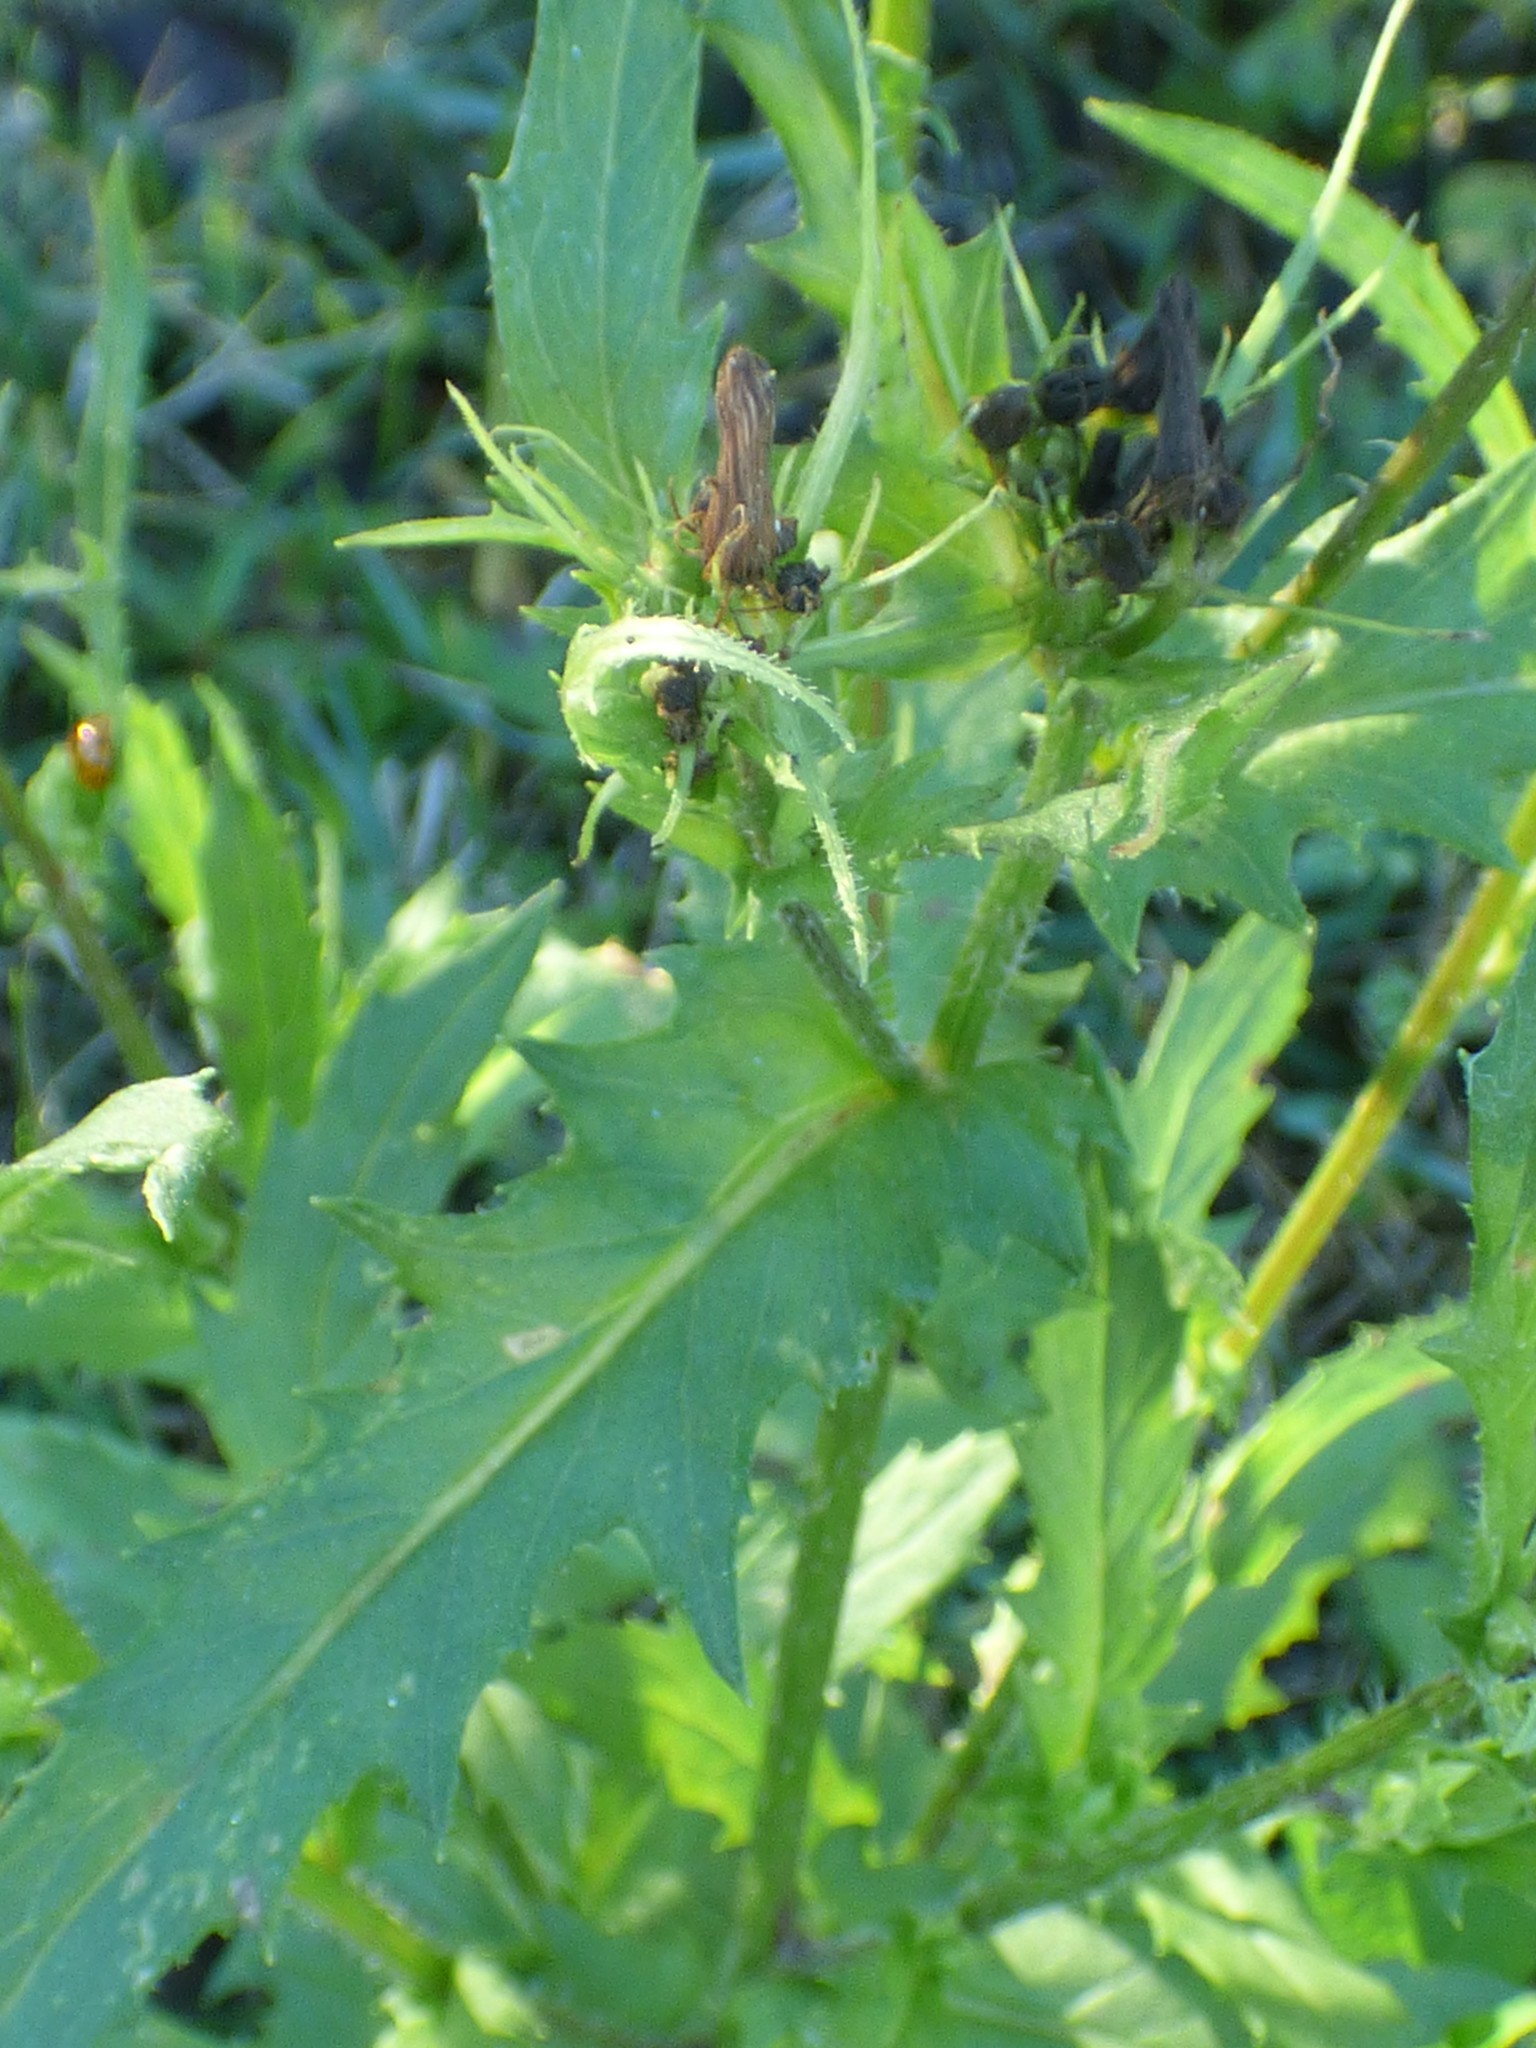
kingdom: Plantae
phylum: Tracheophyta
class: Magnoliopsida
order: Asterales
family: Asteraceae
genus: Erechtites
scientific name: Erechtites hieraciifolius
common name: American burnweed
